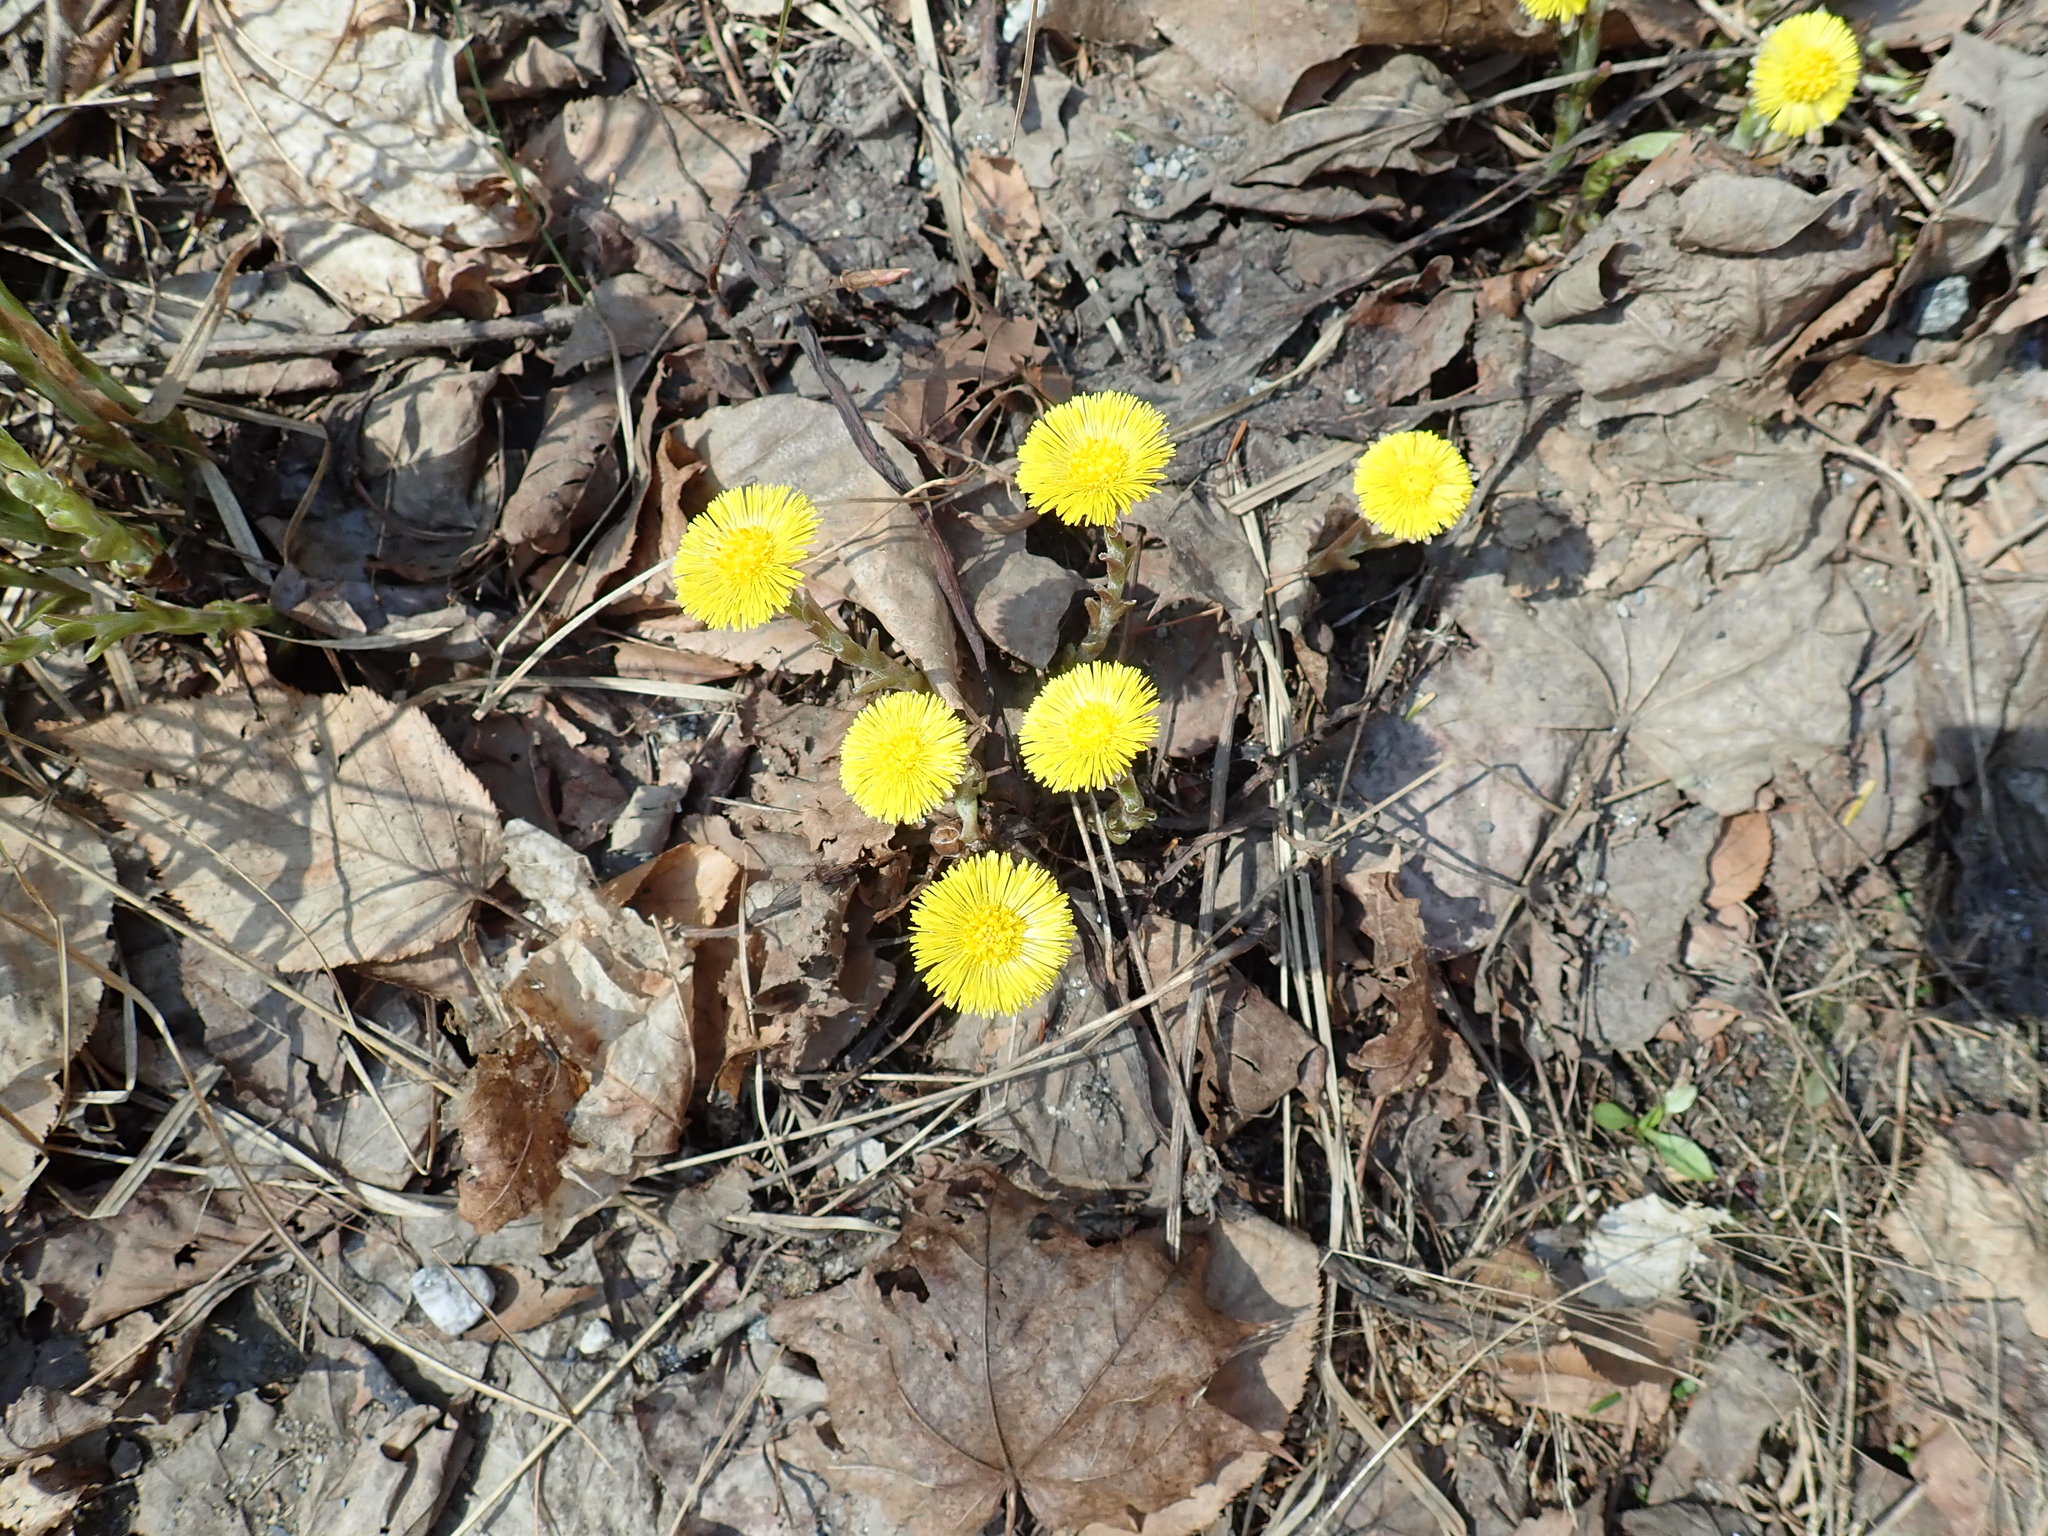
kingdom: Plantae
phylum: Tracheophyta
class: Magnoliopsida
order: Asterales
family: Asteraceae
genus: Tussilago
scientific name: Tussilago farfara
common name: Coltsfoot
